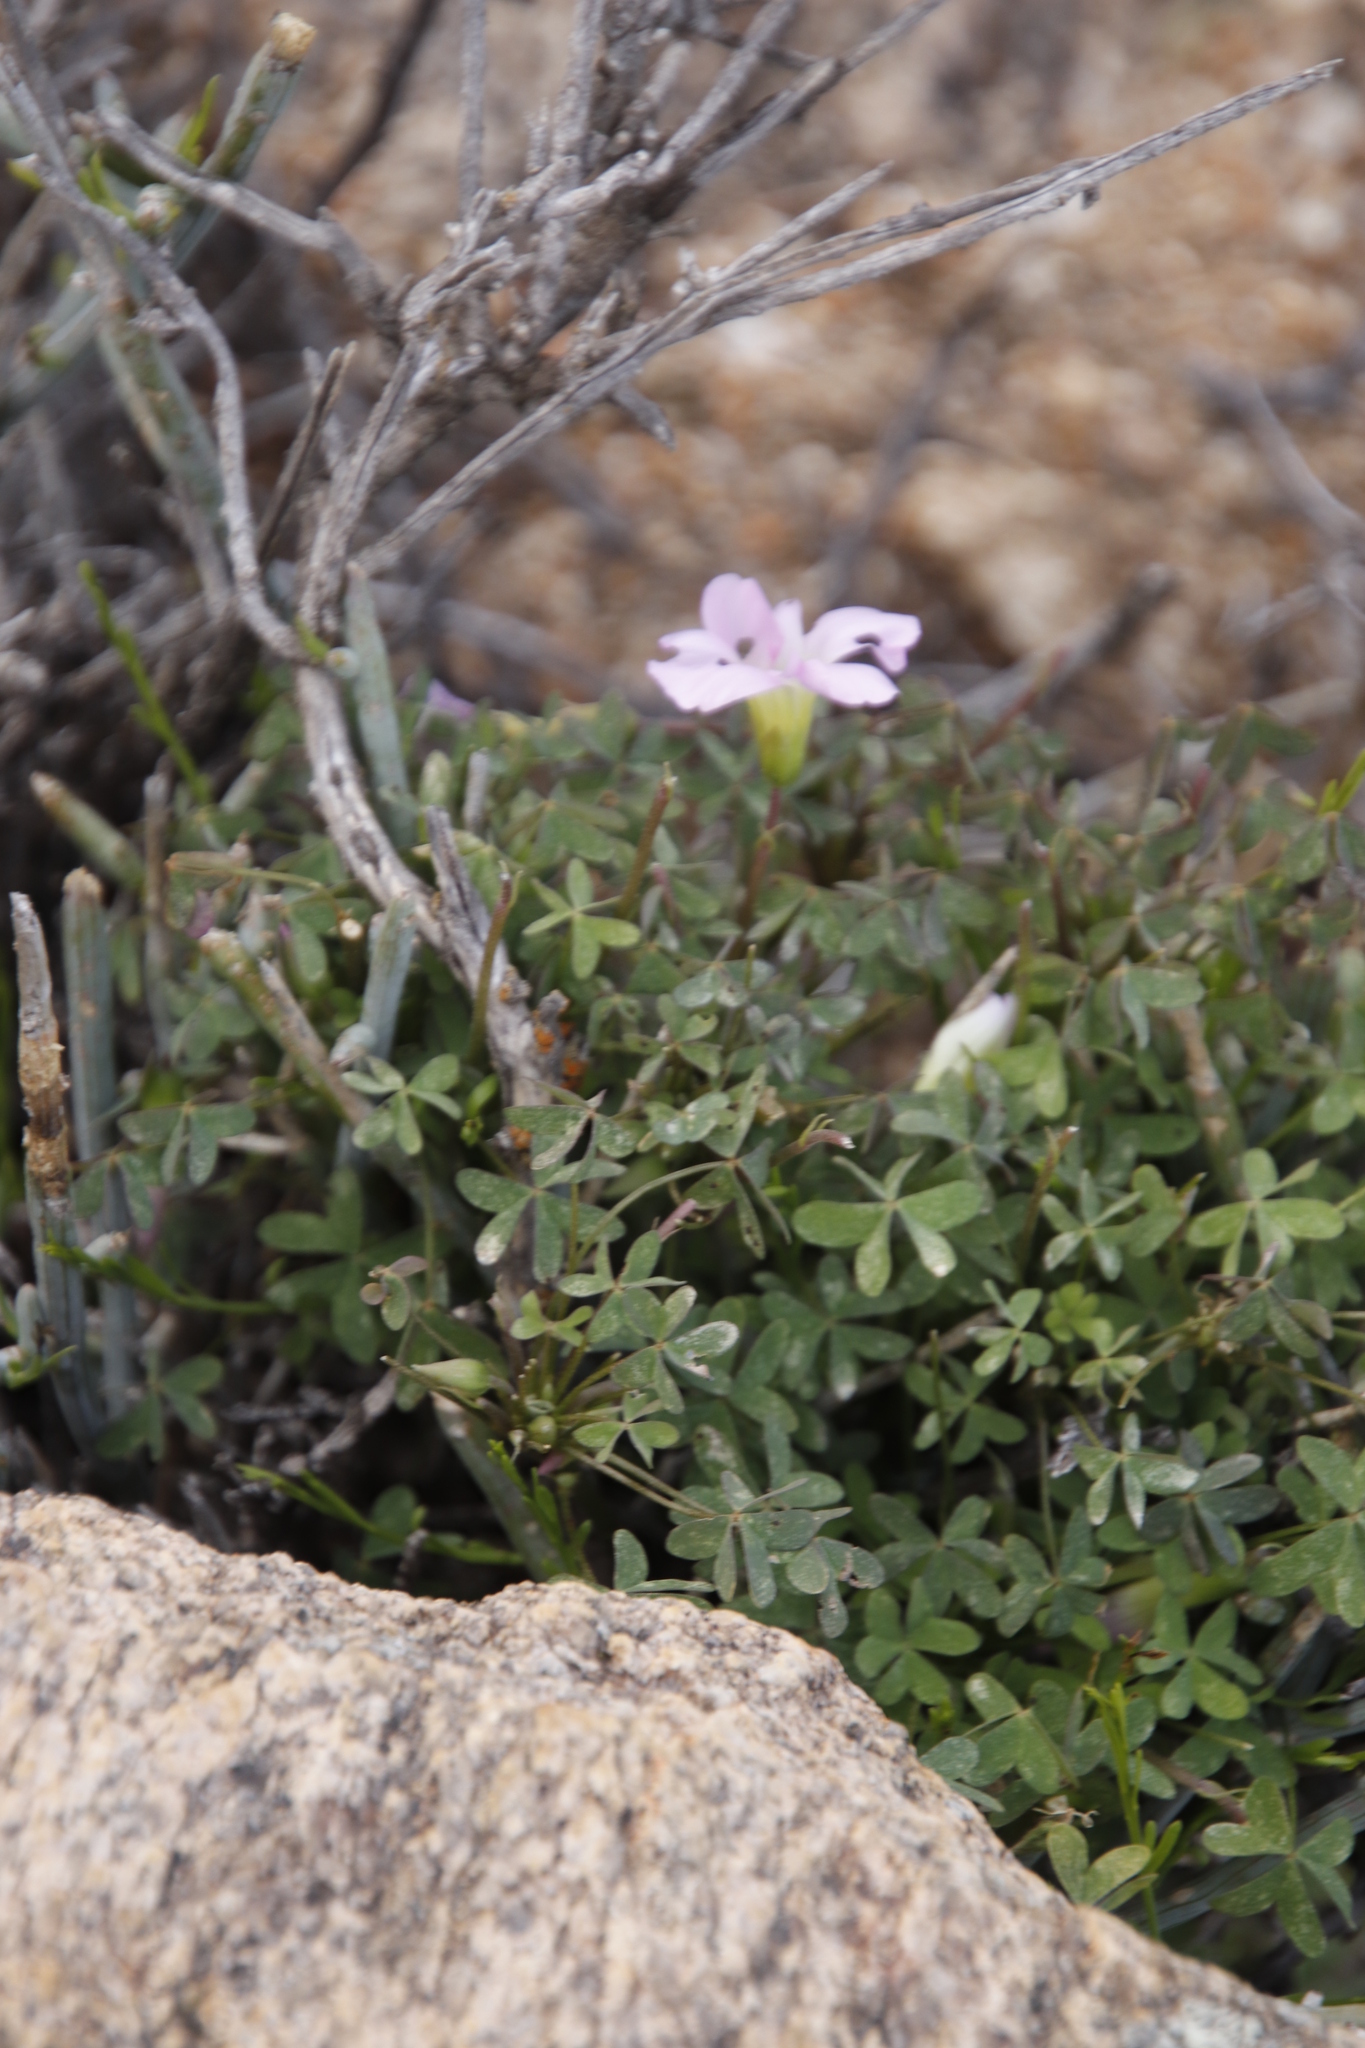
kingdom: Plantae
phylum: Tracheophyta
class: Magnoliopsida
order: Oxalidales
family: Oxalidaceae
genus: Oxalis
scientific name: Oxalis comosa
